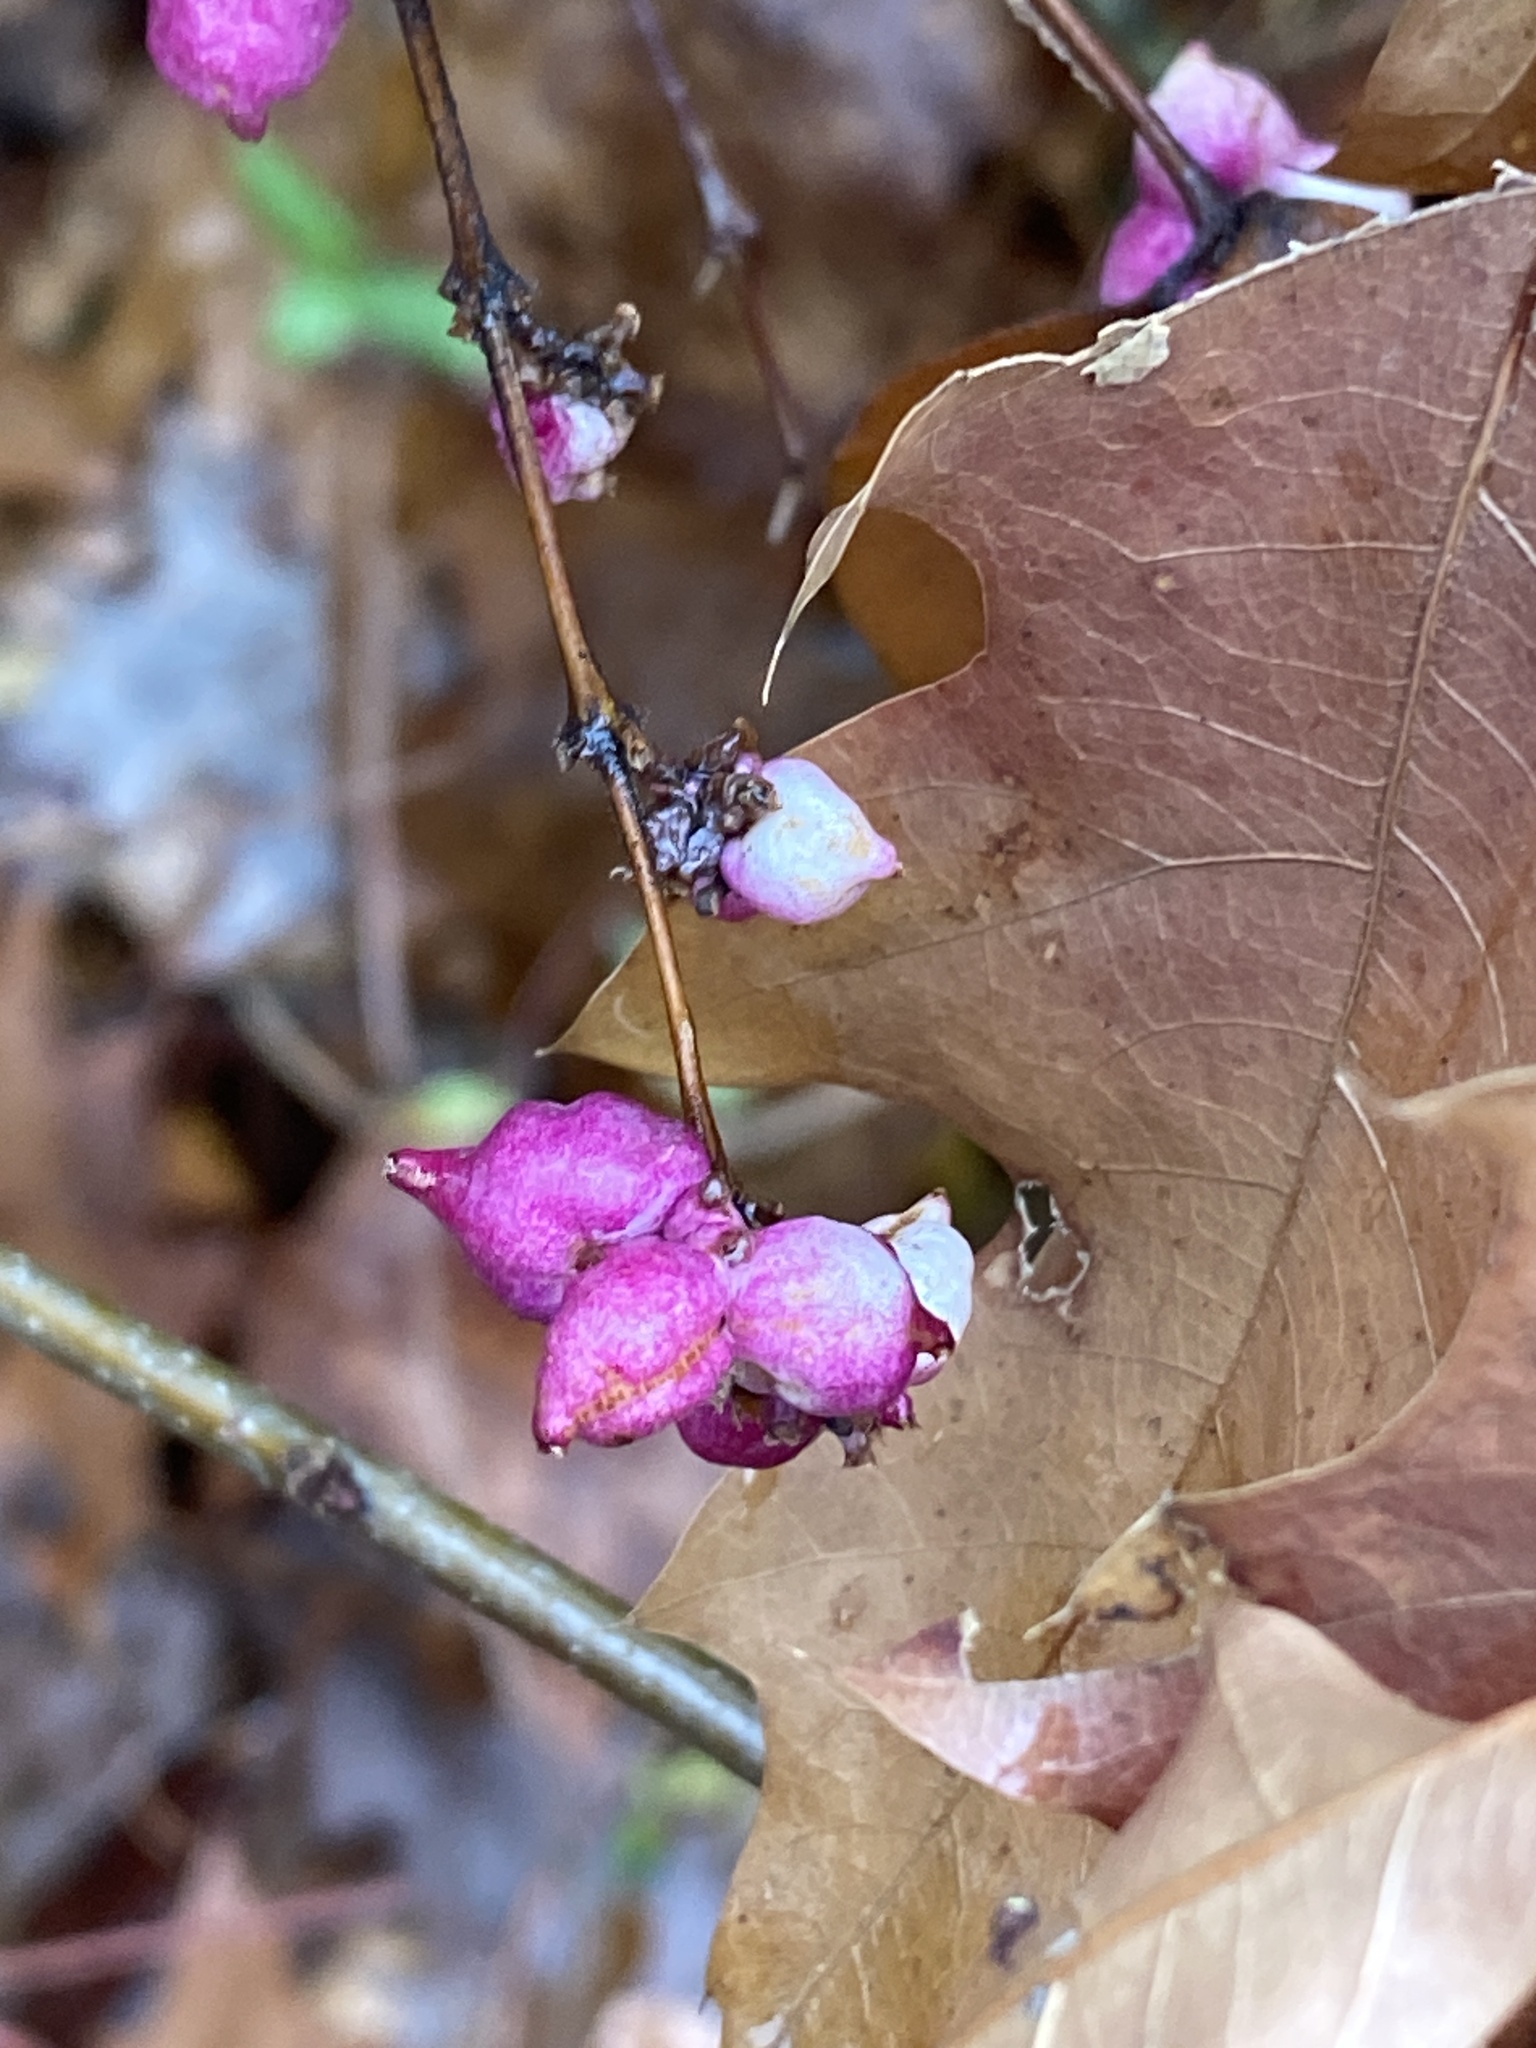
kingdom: Plantae
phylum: Tracheophyta
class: Magnoliopsida
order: Dipsacales
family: Caprifoliaceae
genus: Symphoricarpos
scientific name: Symphoricarpos orbiculatus
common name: Coralberry
